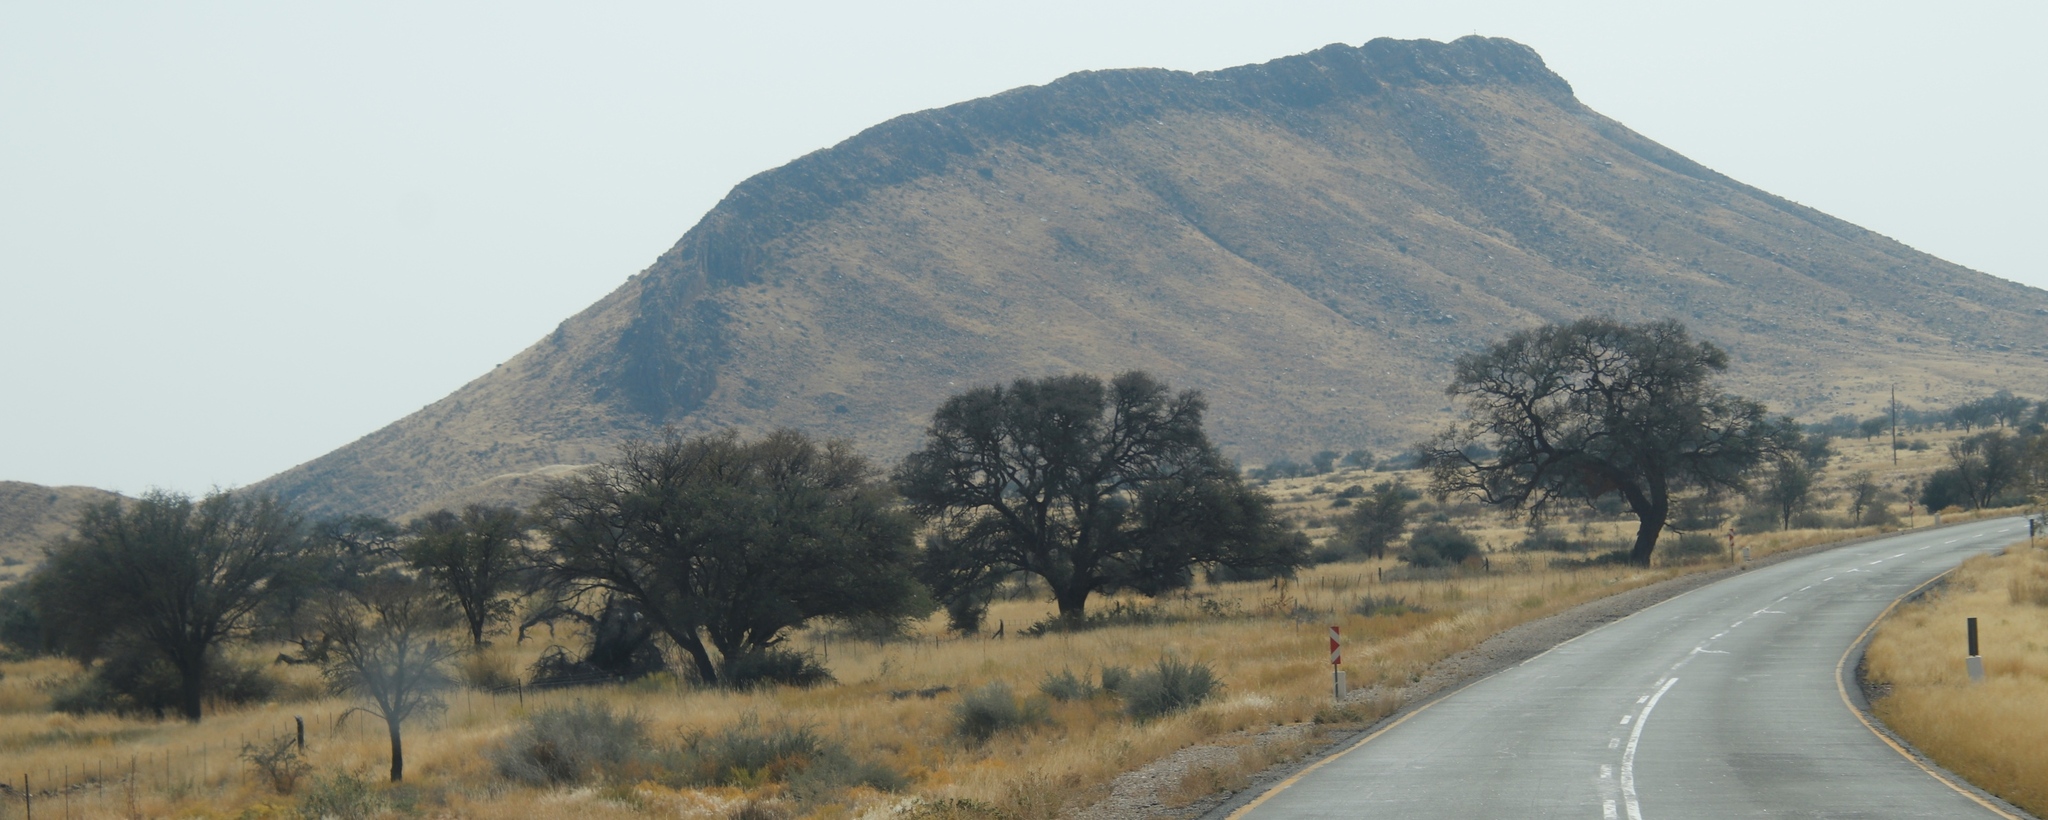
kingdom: Plantae
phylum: Tracheophyta
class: Magnoliopsida
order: Fabales
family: Fabaceae
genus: Vachellia
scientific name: Vachellia erioloba
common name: Camel thorn
